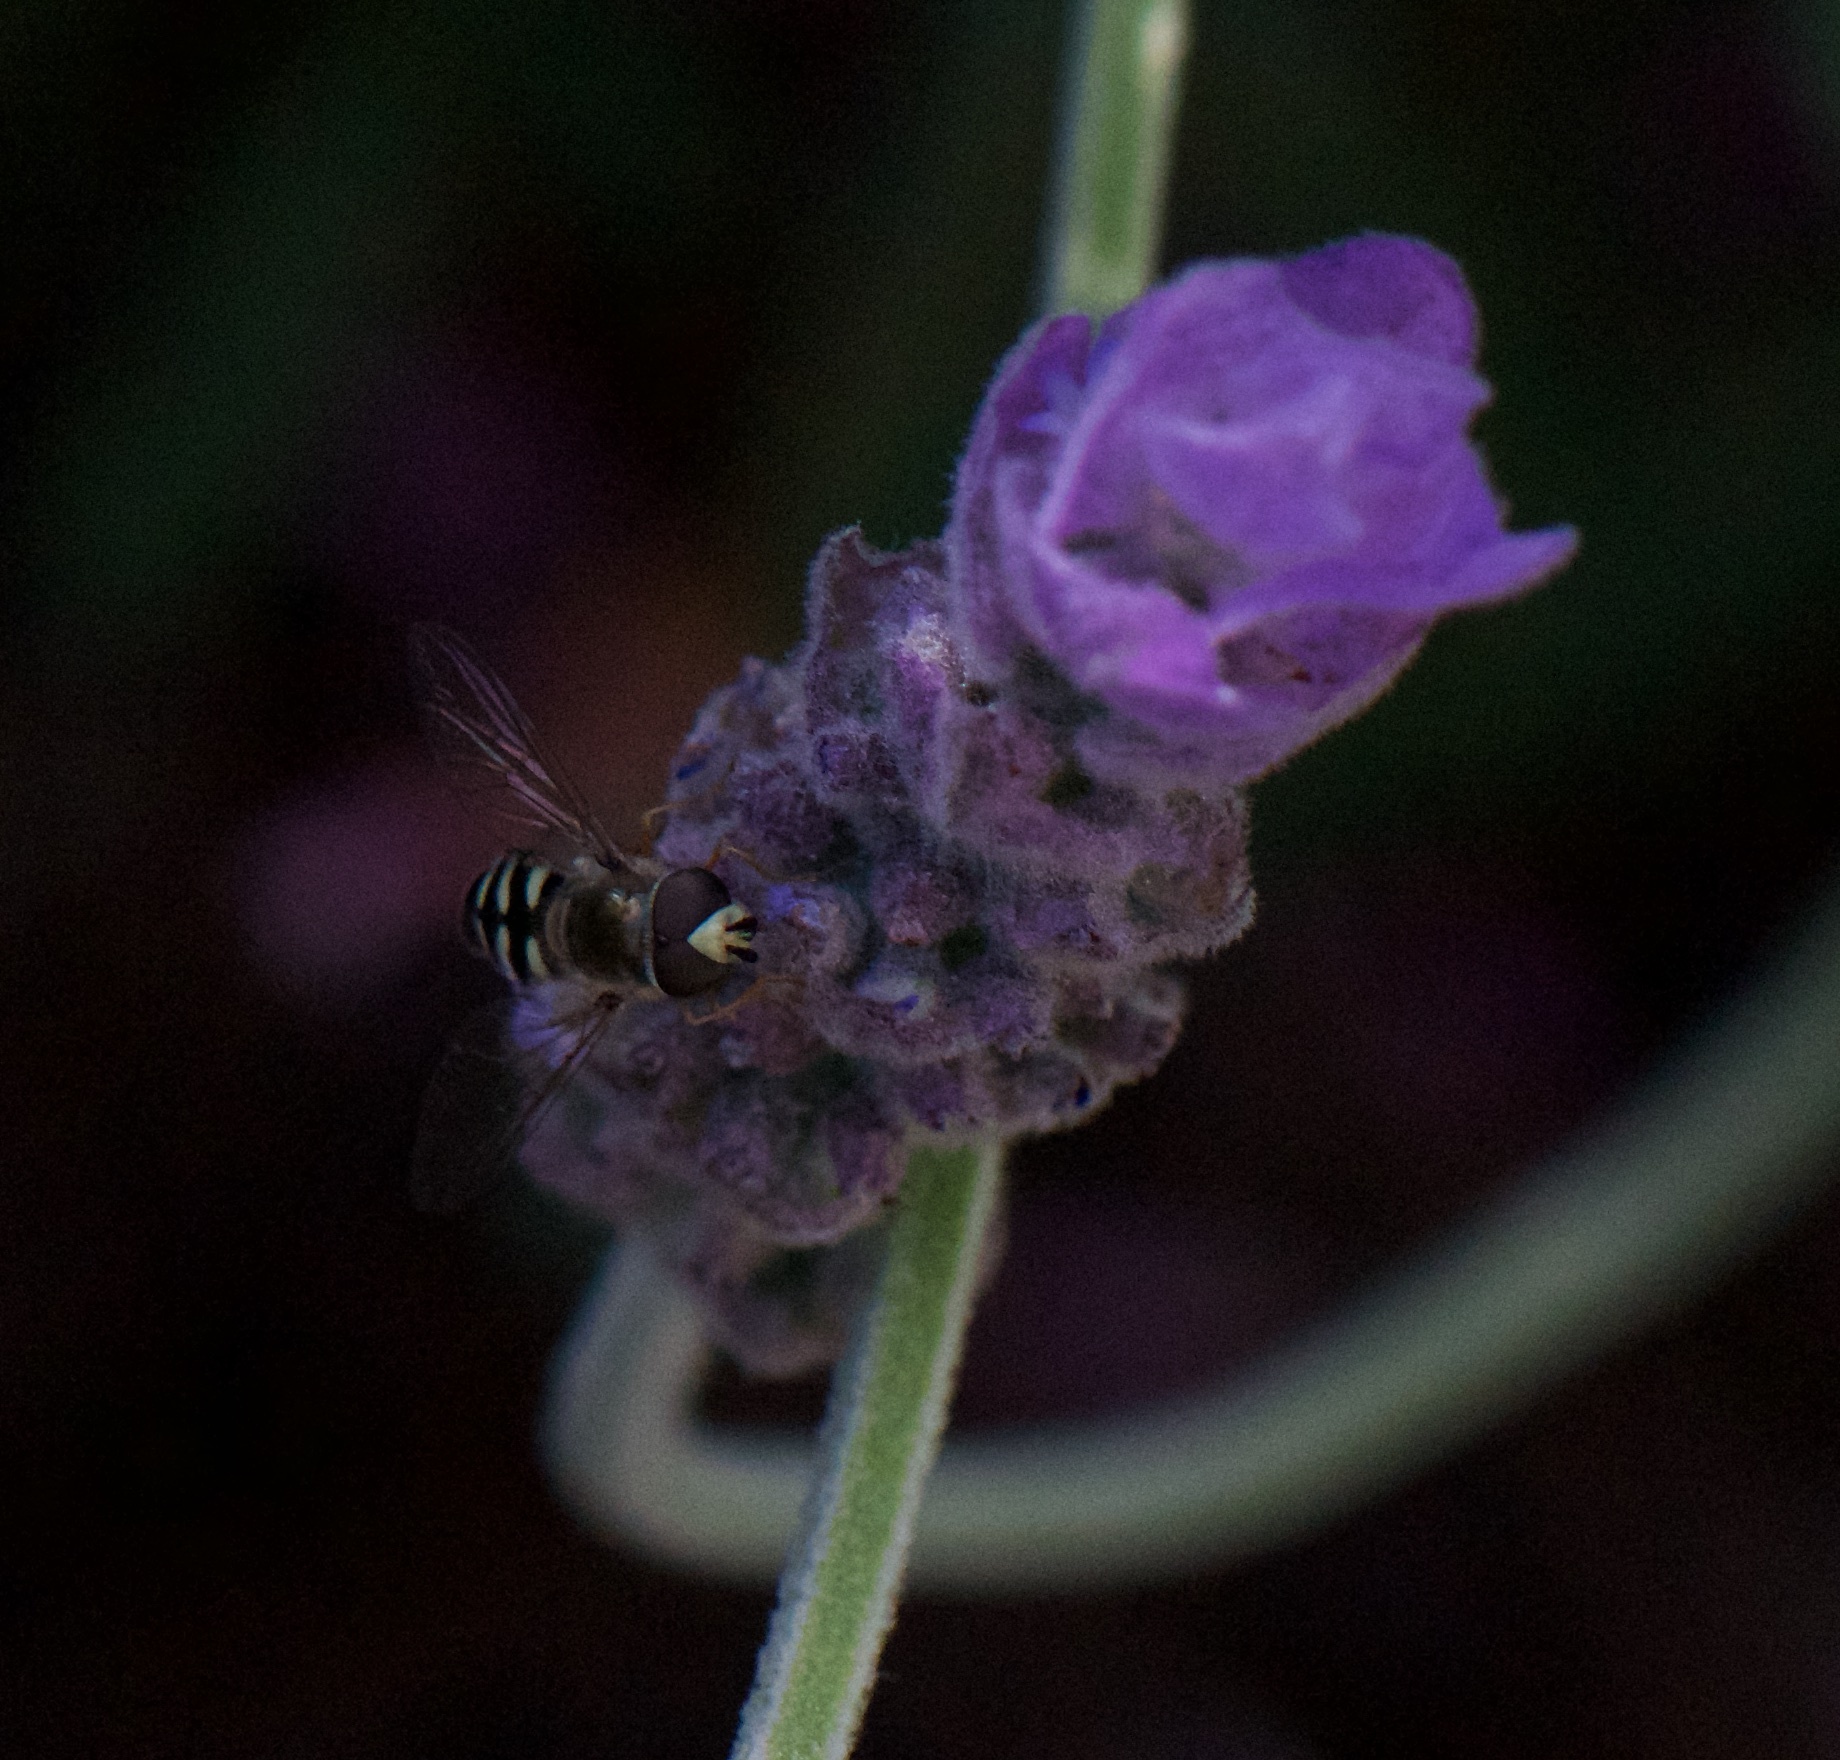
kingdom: Animalia
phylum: Arthropoda
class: Insecta
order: Diptera
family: Syrphidae
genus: Eupeodes
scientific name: Eupeodes volucris
